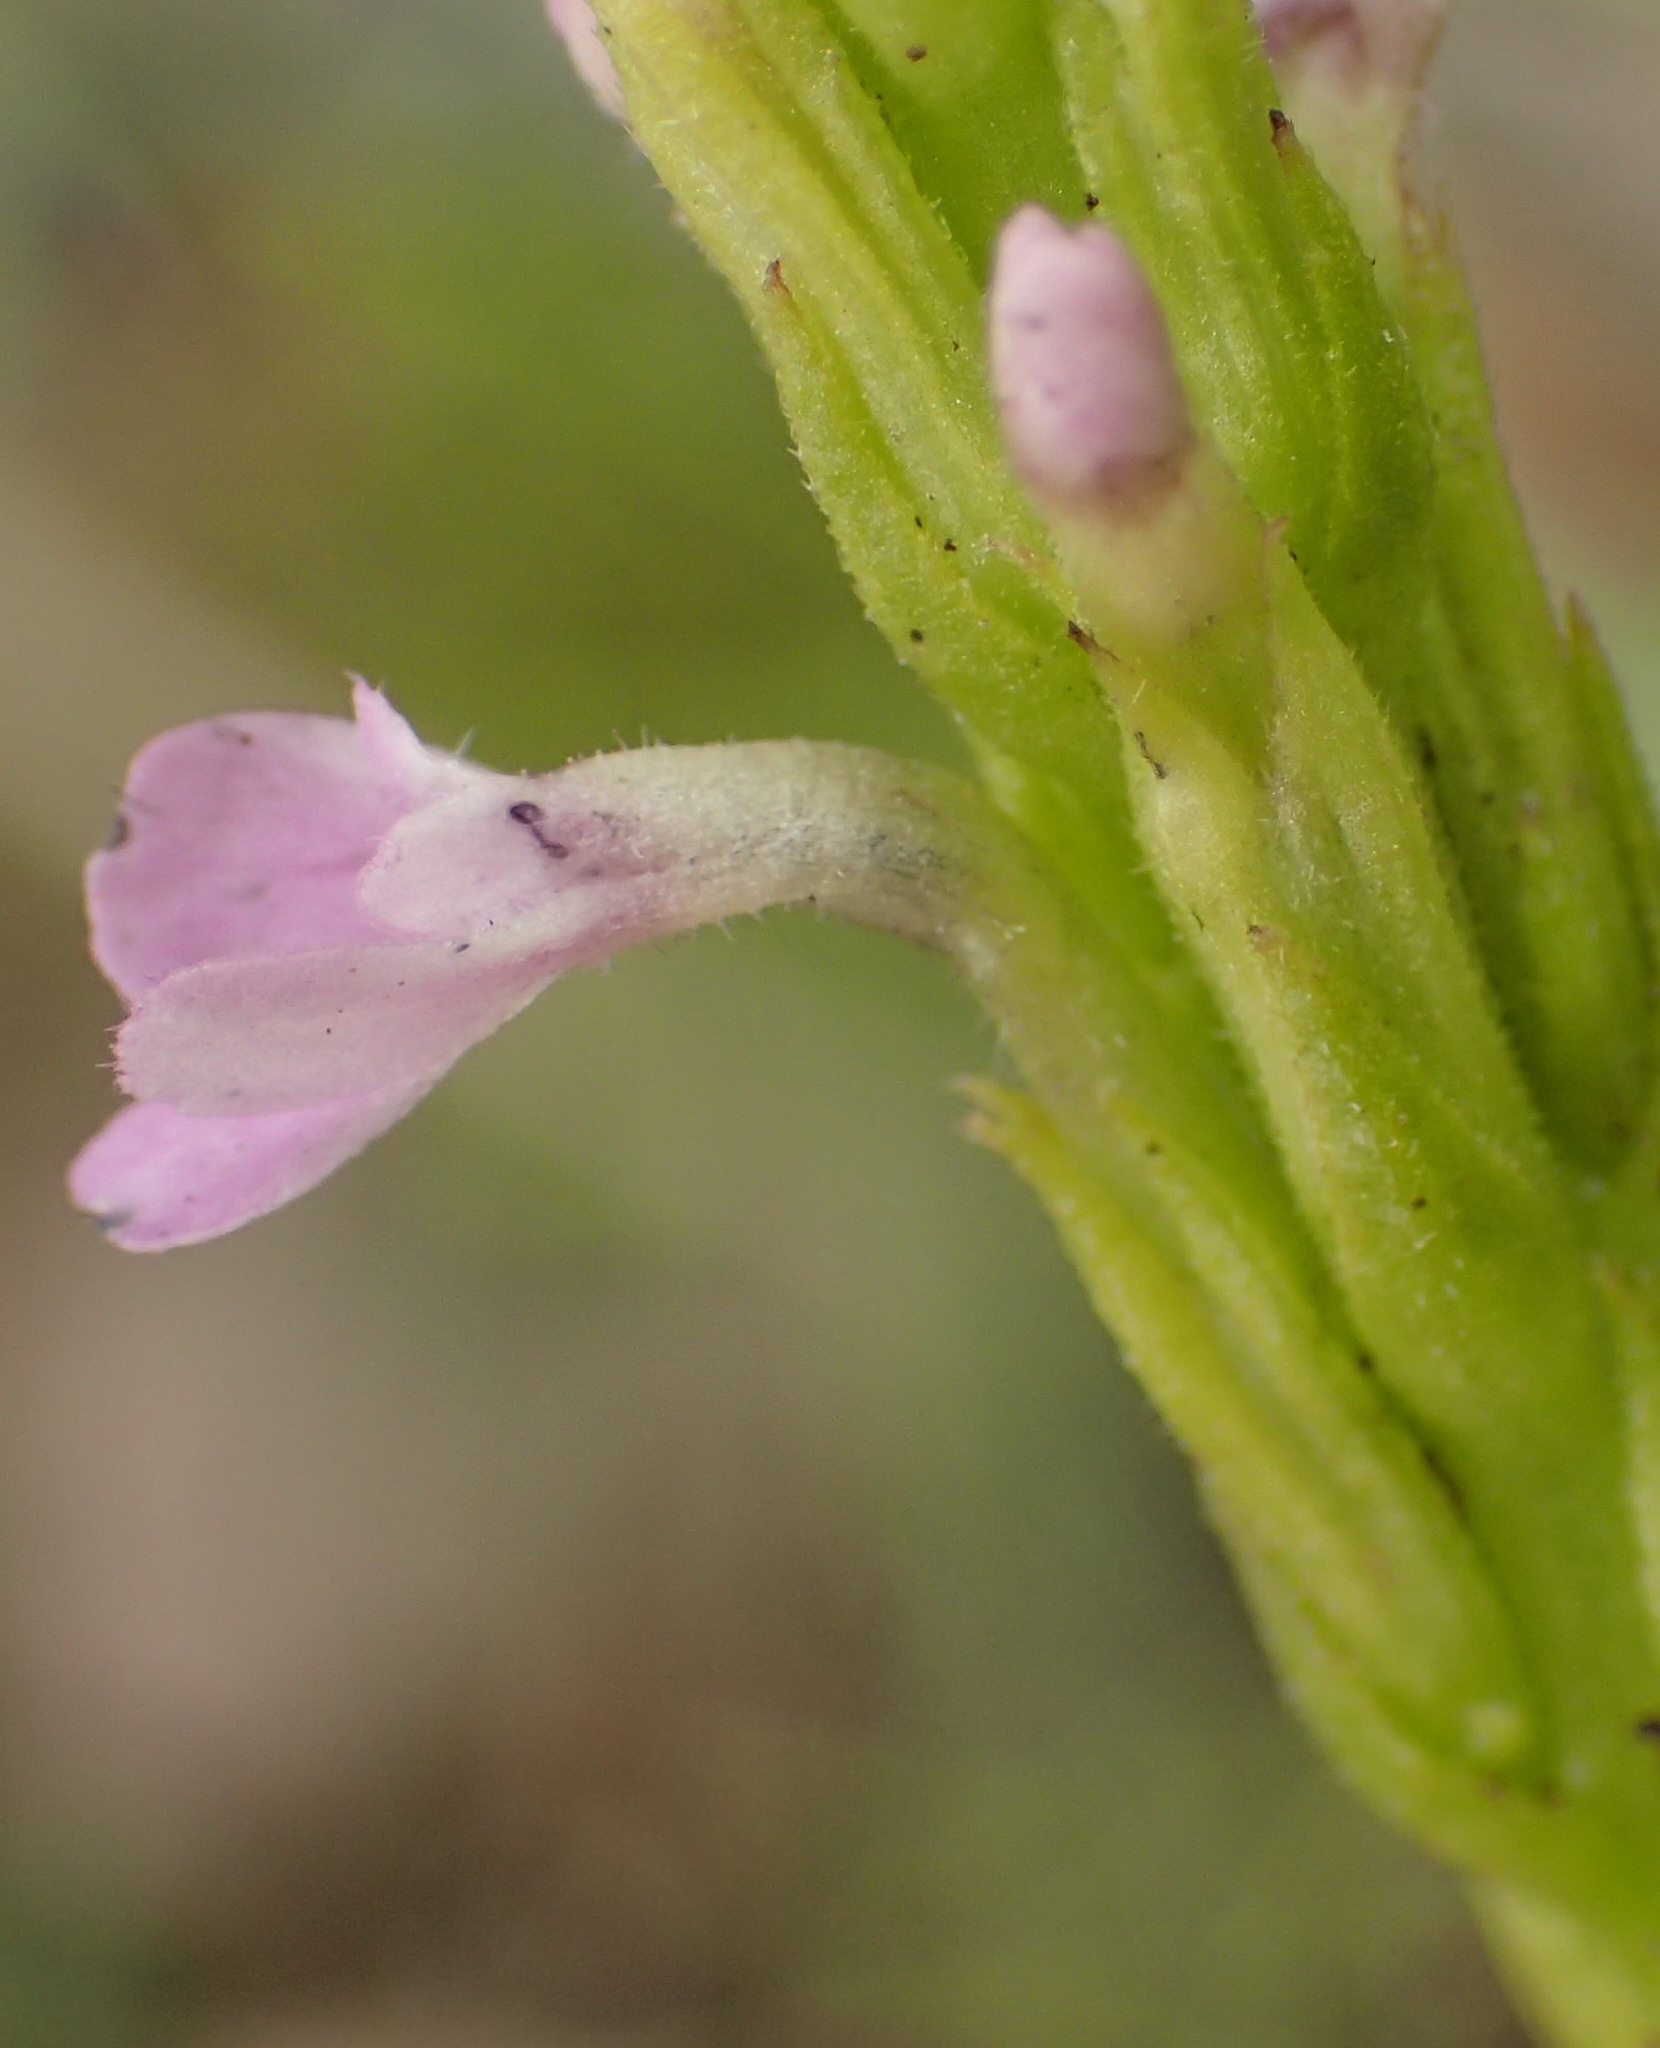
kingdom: Plantae
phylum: Tracheophyta
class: Magnoliopsida
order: Lamiales
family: Orobanchaceae
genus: Striga
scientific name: Striga gesnerioides
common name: Cowpea witchweed
